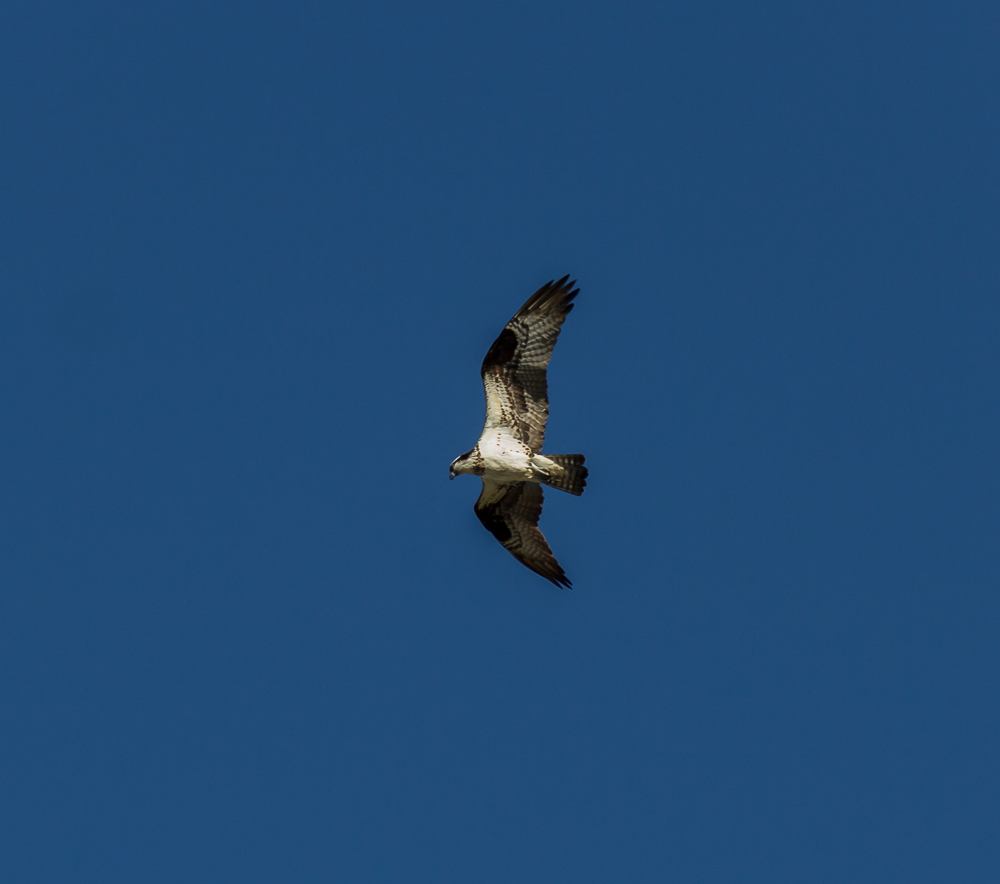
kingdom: Animalia
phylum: Chordata
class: Aves
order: Accipitriformes
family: Pandionidae
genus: Pandion
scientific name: Pandion haliaetus
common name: Osprey
